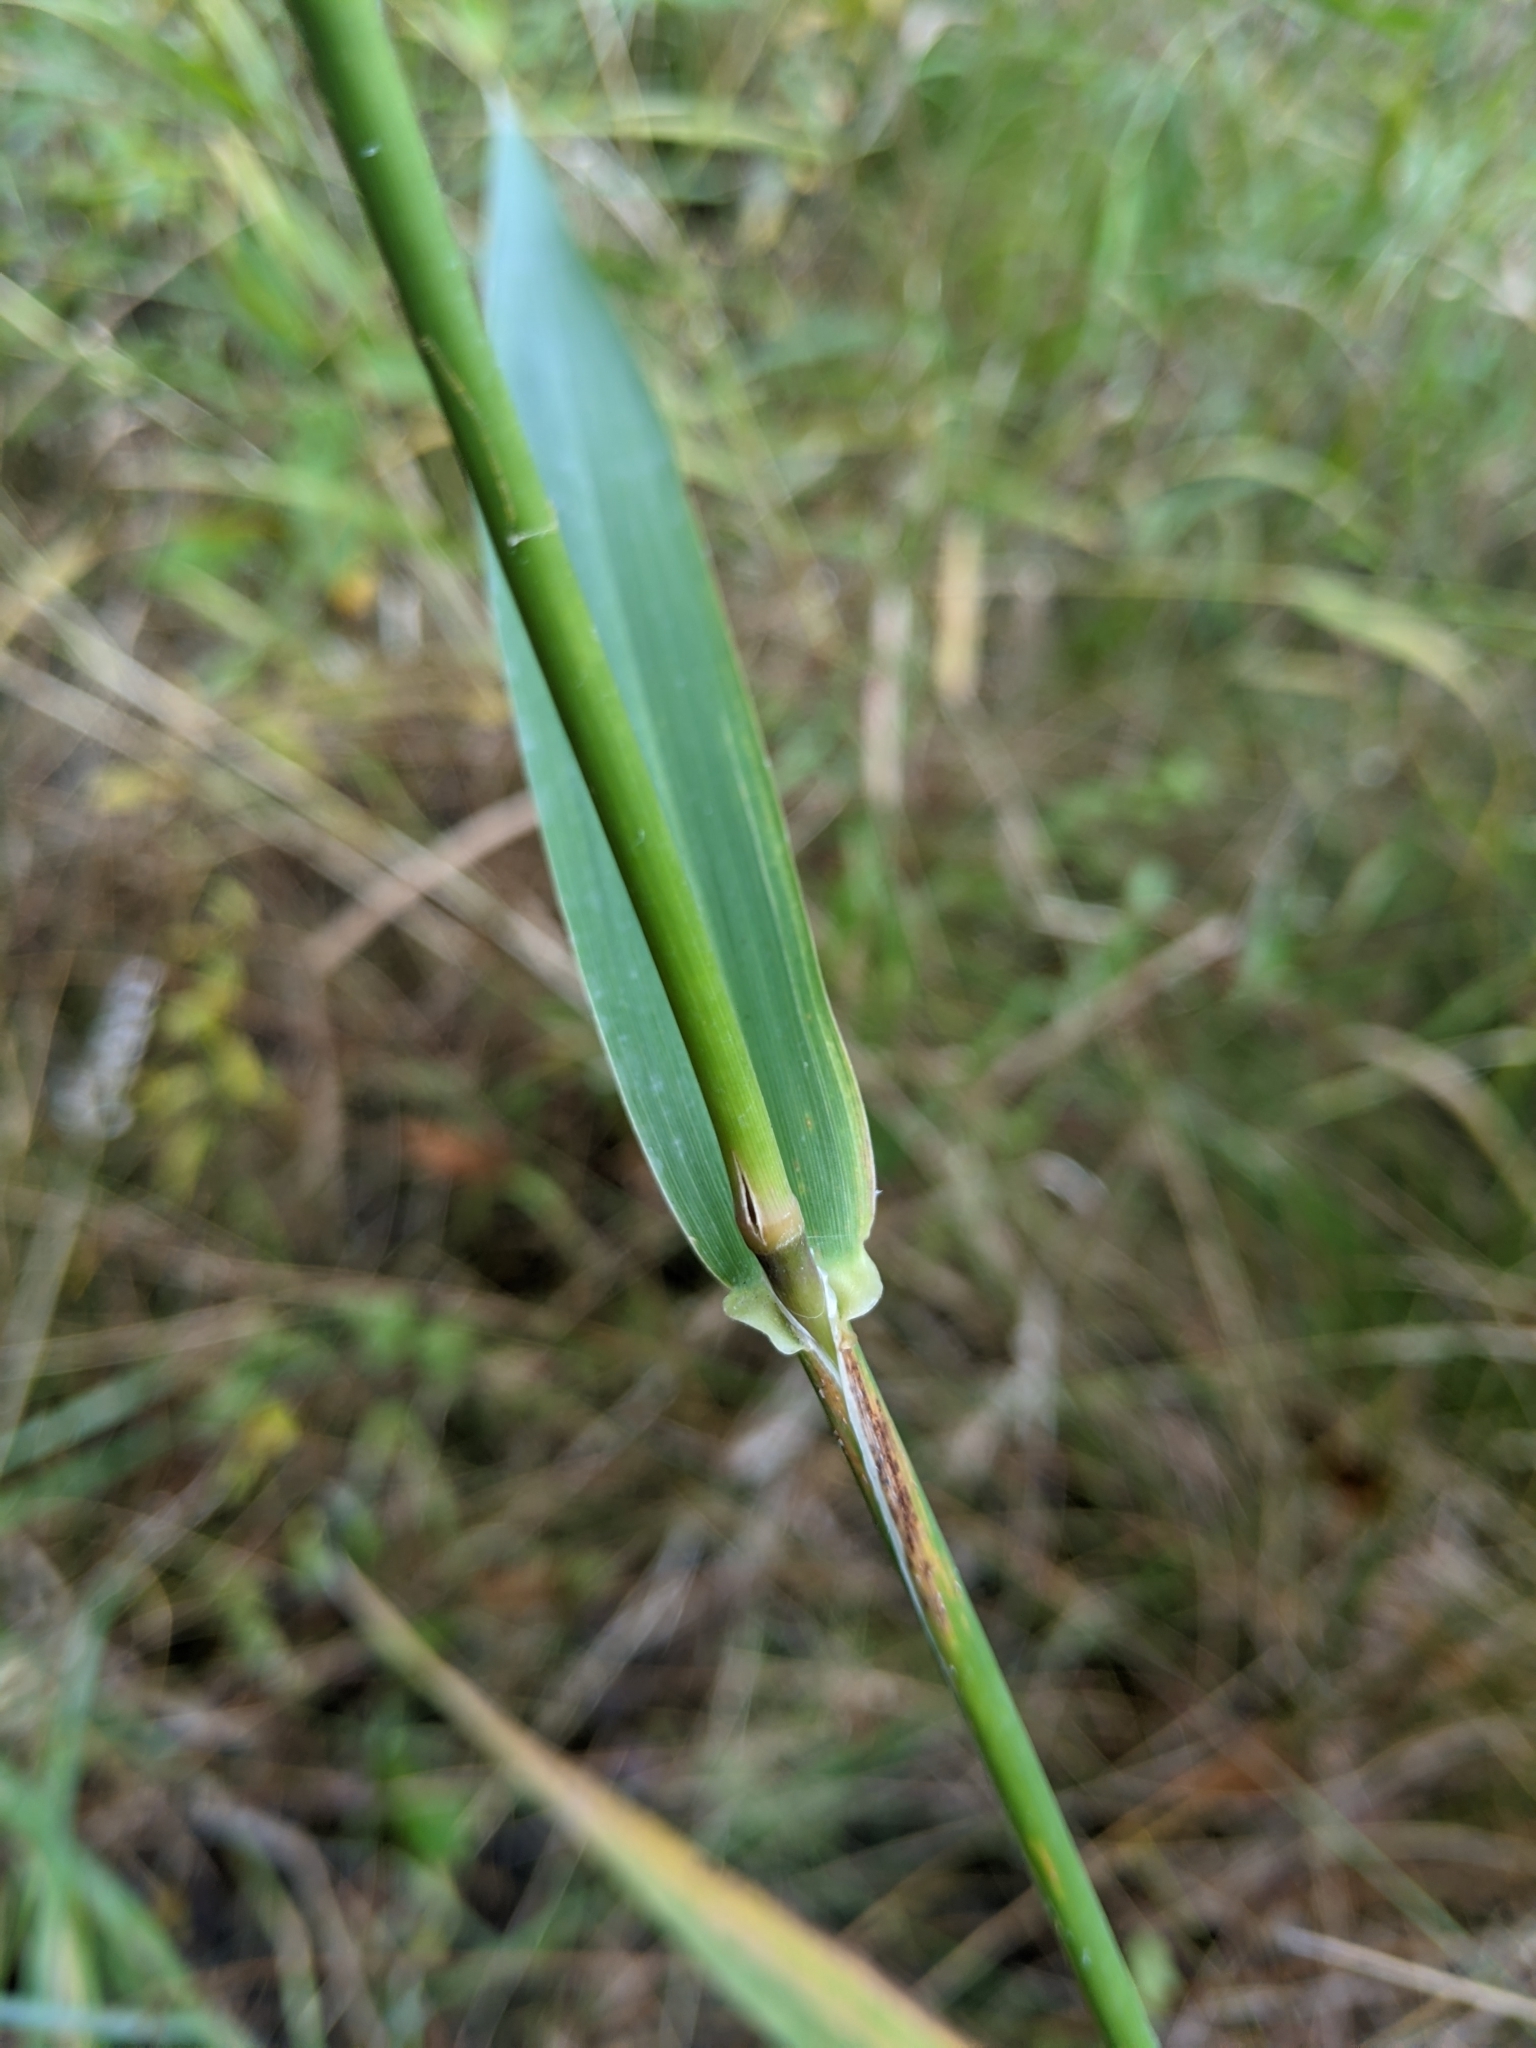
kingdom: Plantae
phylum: Tracheophyta
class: Liliopsida
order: Poales
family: Poaceae
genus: Phalaris
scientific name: Phalaris arundinacea
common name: Reed canary-grass
